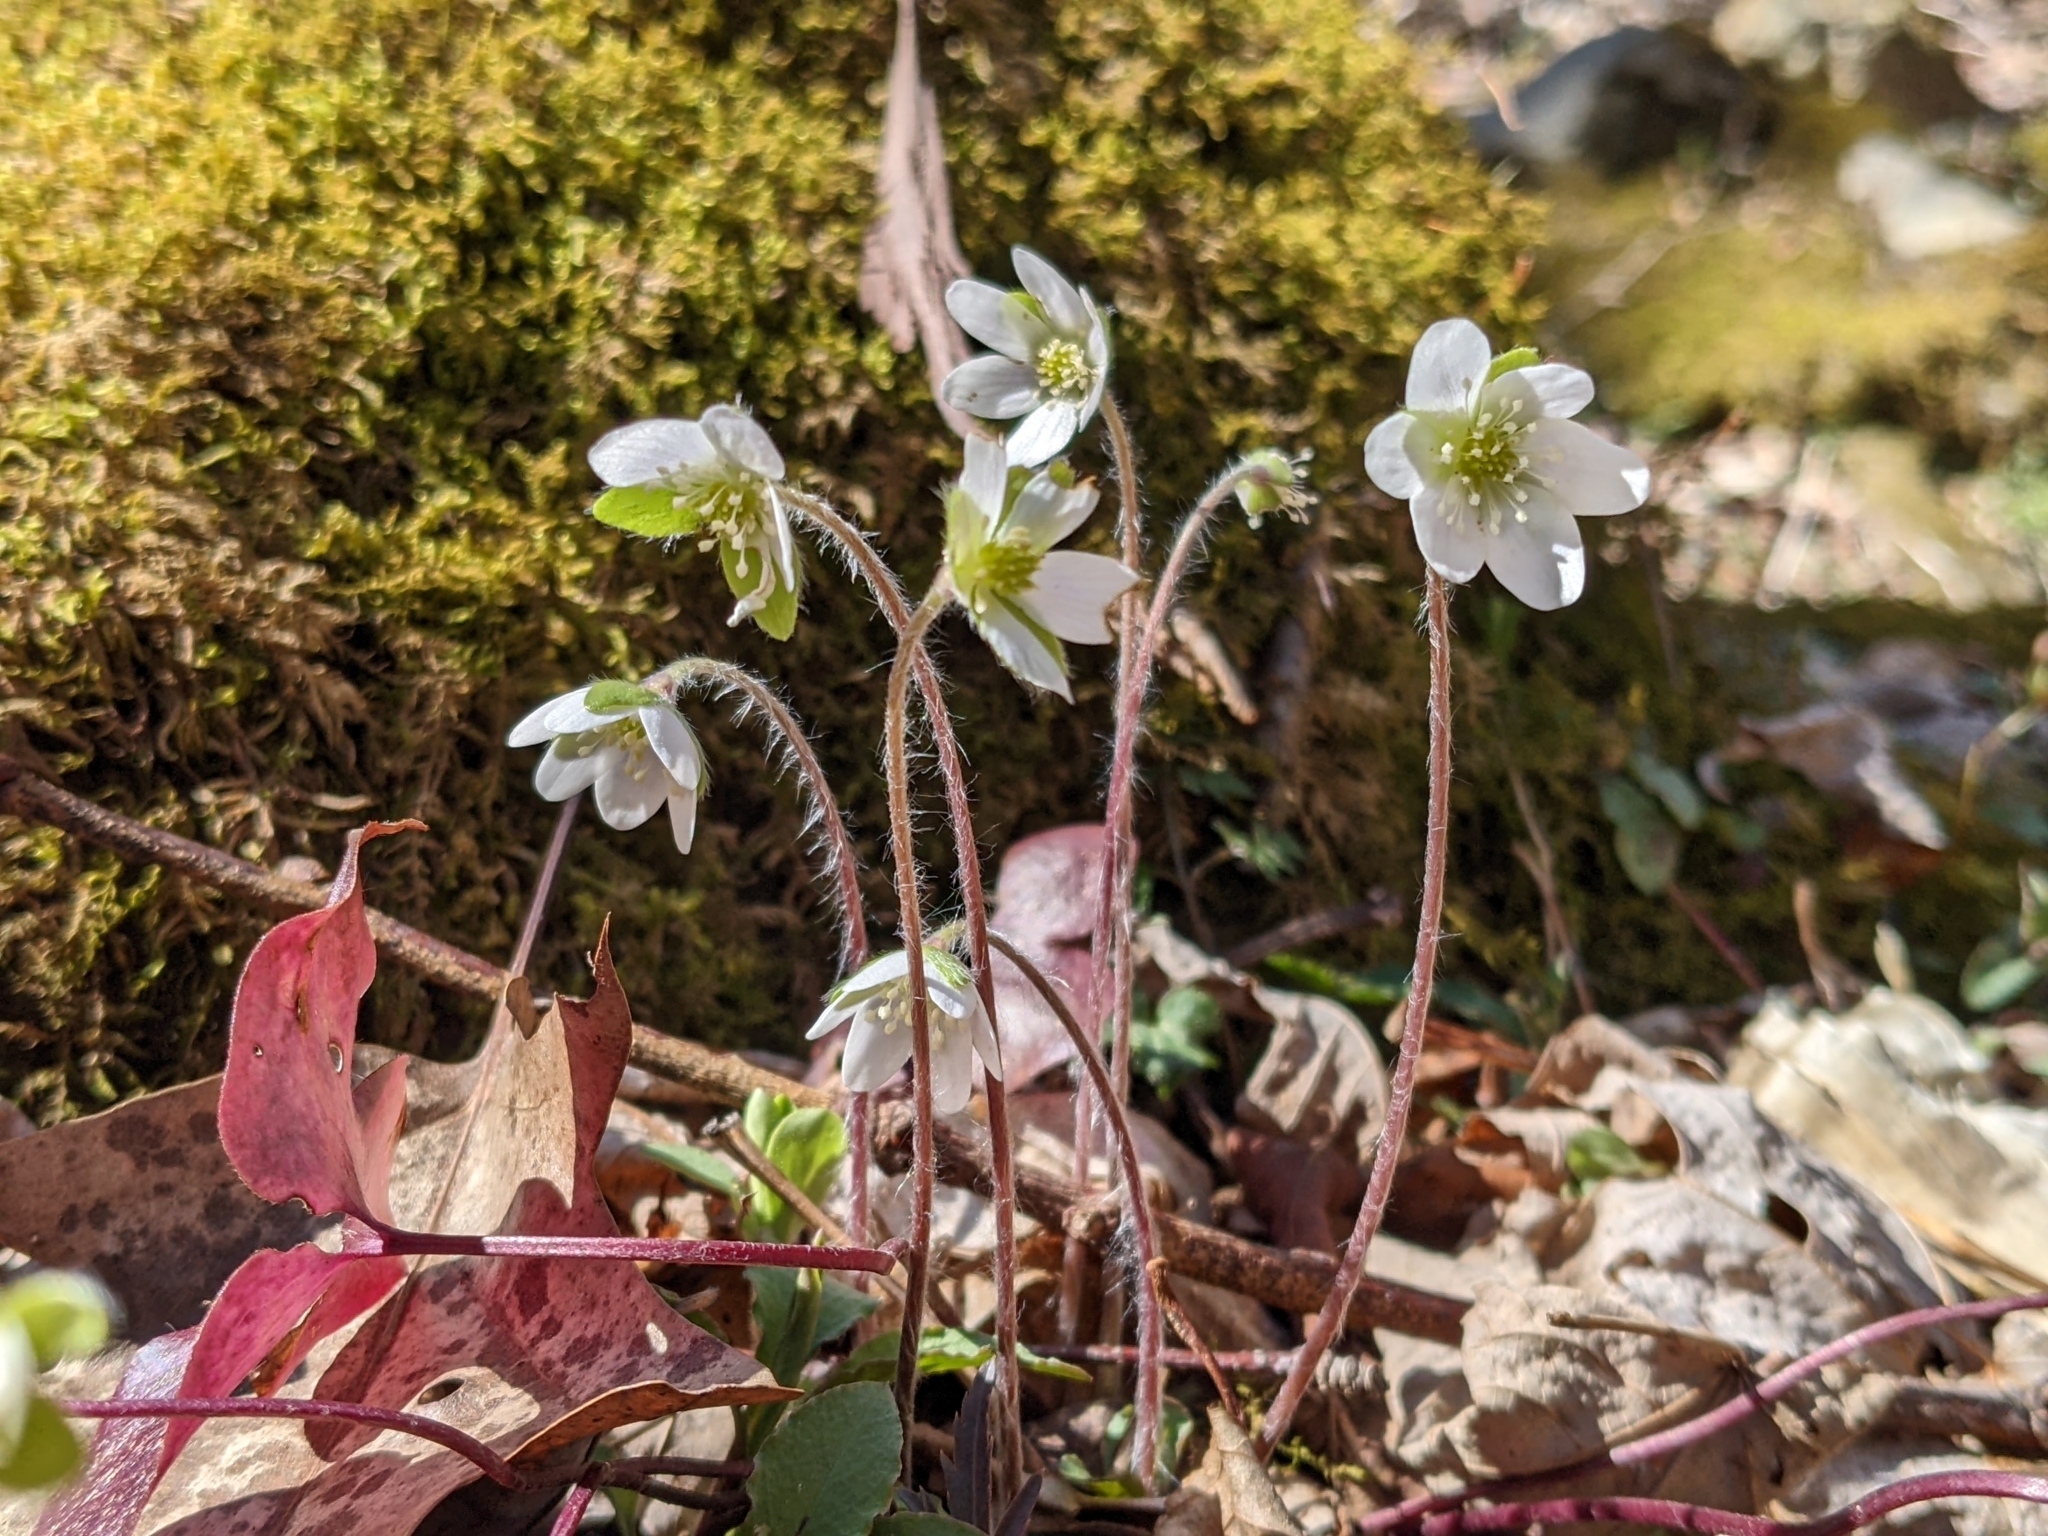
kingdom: Plantae
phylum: Tracheophyta
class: Magnoliopsida
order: Ranunculales
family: Ranunculaceae
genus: Hepatica
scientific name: Hepatica acutiloba
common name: Sharp-lobed hepatica
